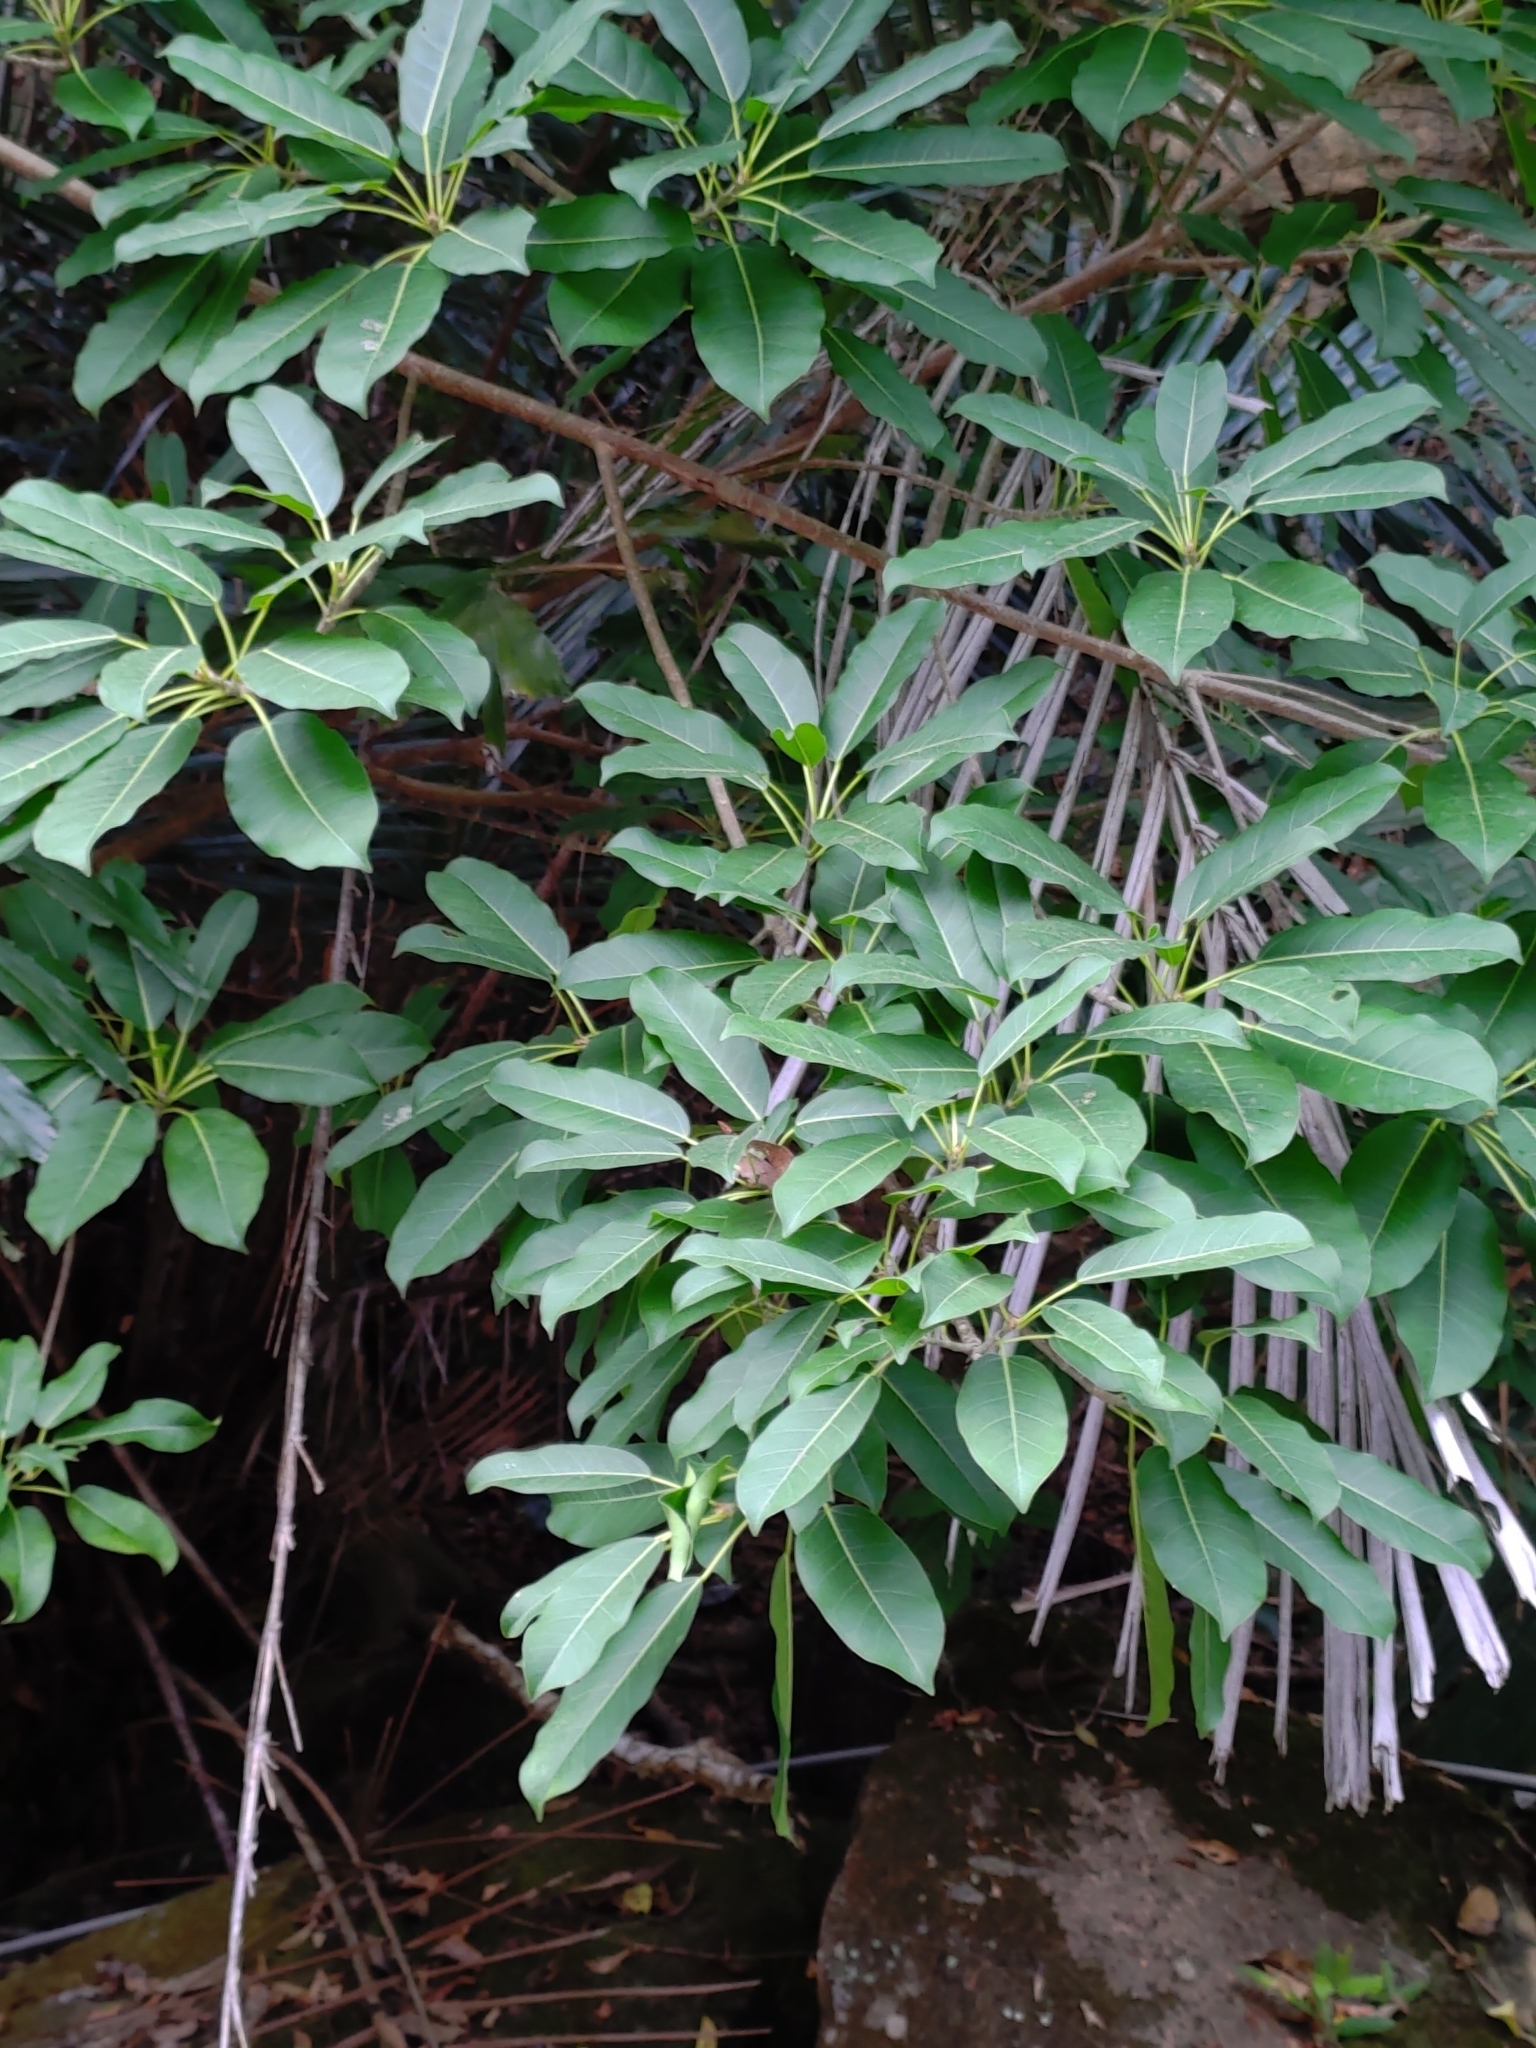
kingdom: Plantae
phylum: Tracheophyta
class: Magnoliopsida
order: Rosales
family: Moraceae
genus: Ficus
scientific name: Ficus subpisocarpa
